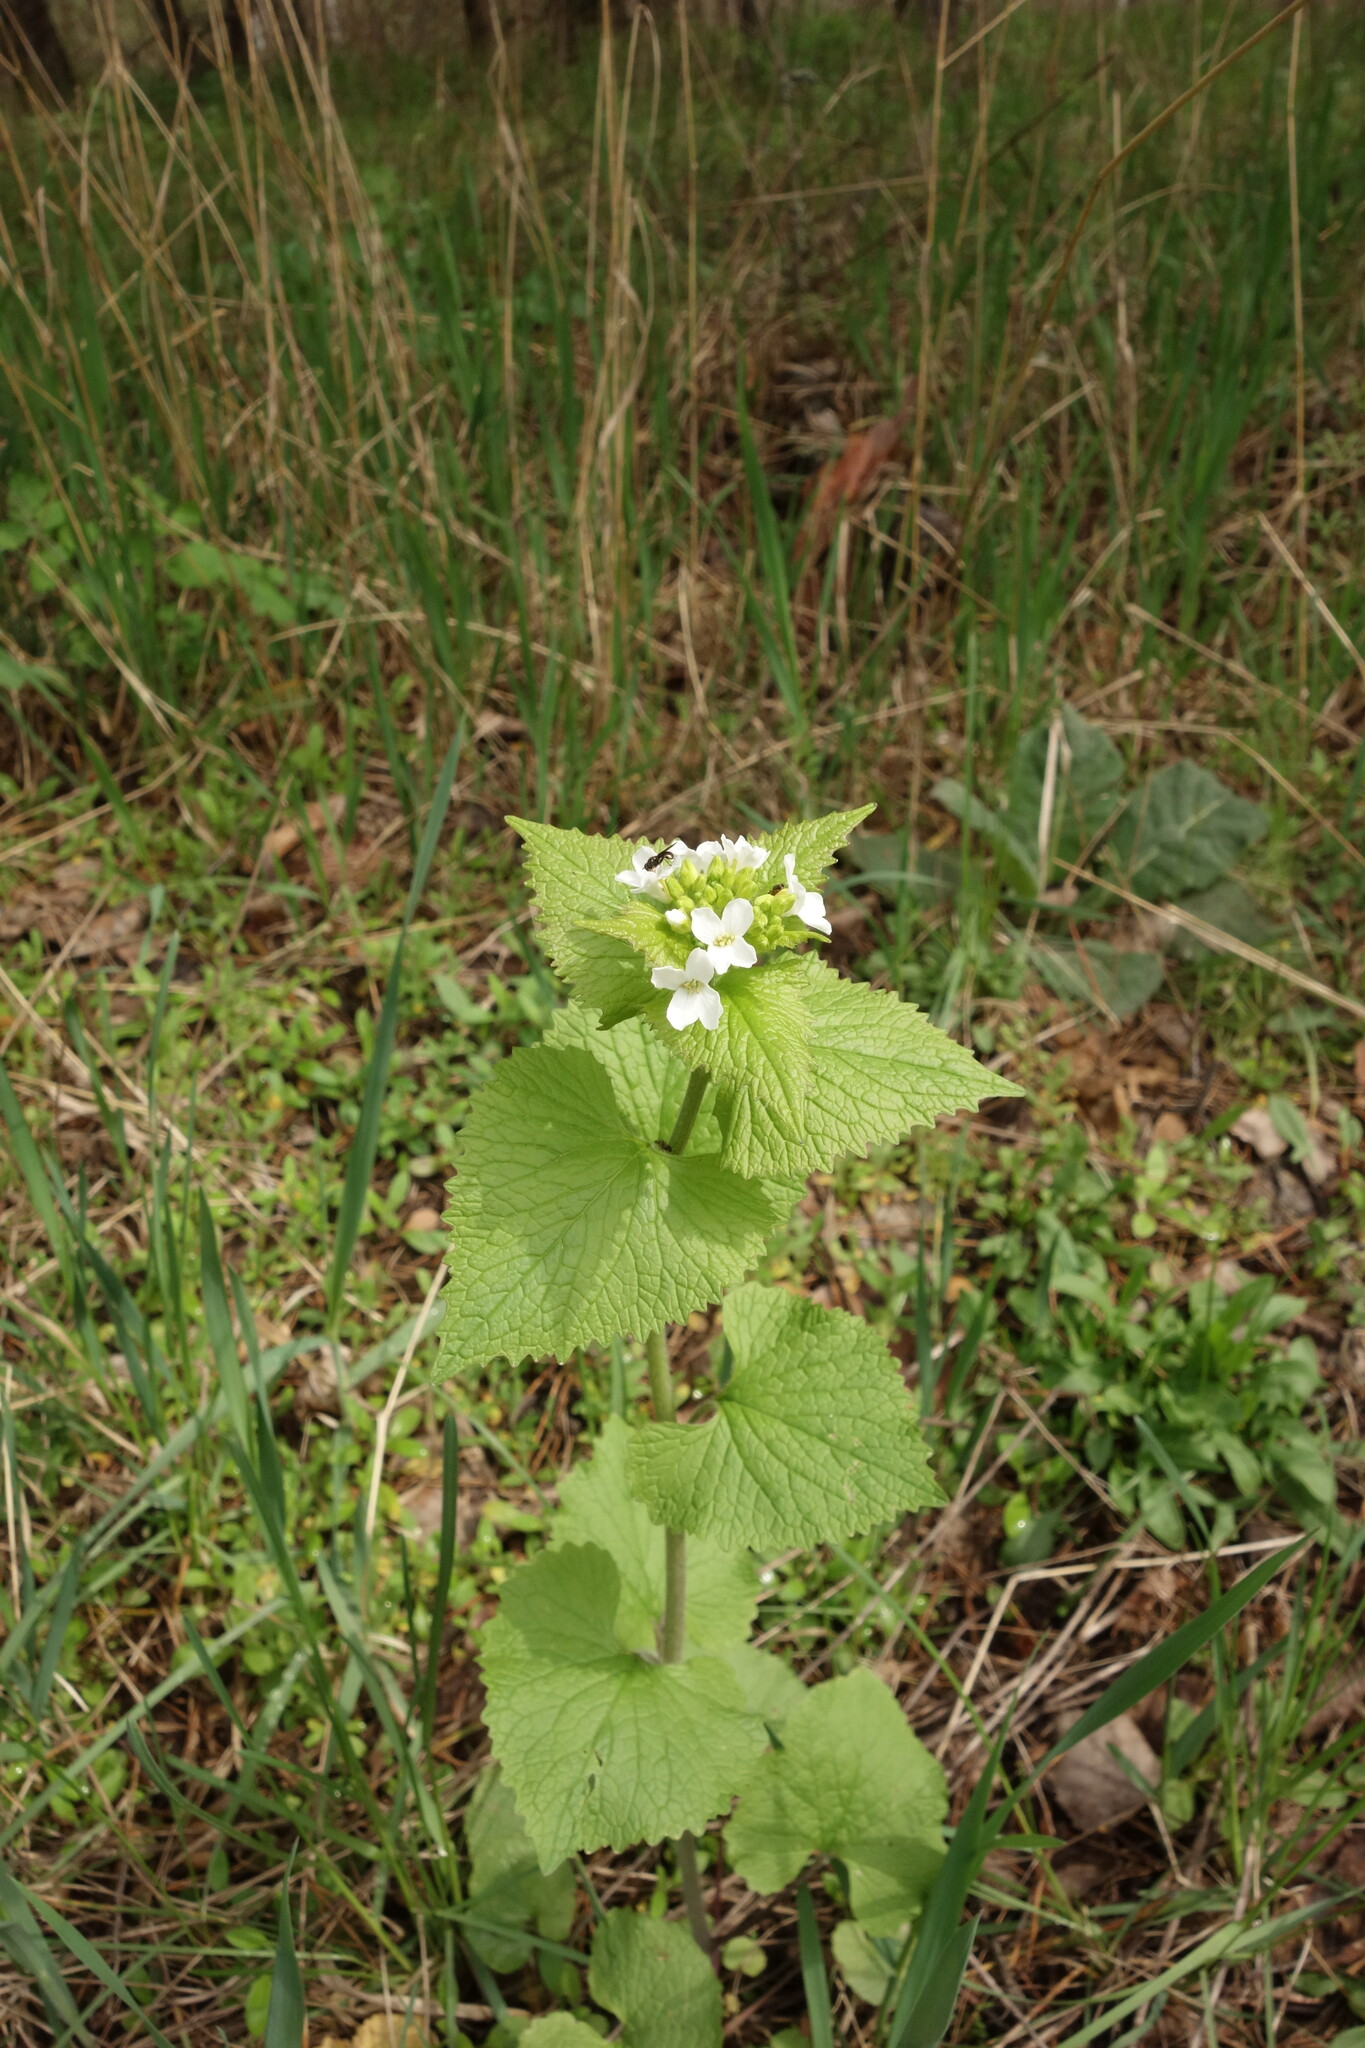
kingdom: Plantae
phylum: Tracheophyta
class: Magnoliopsida
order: Brassicales
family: Brassicaceae
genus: Alliaria
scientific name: Alliaria petiolata
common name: Garlic mustard
